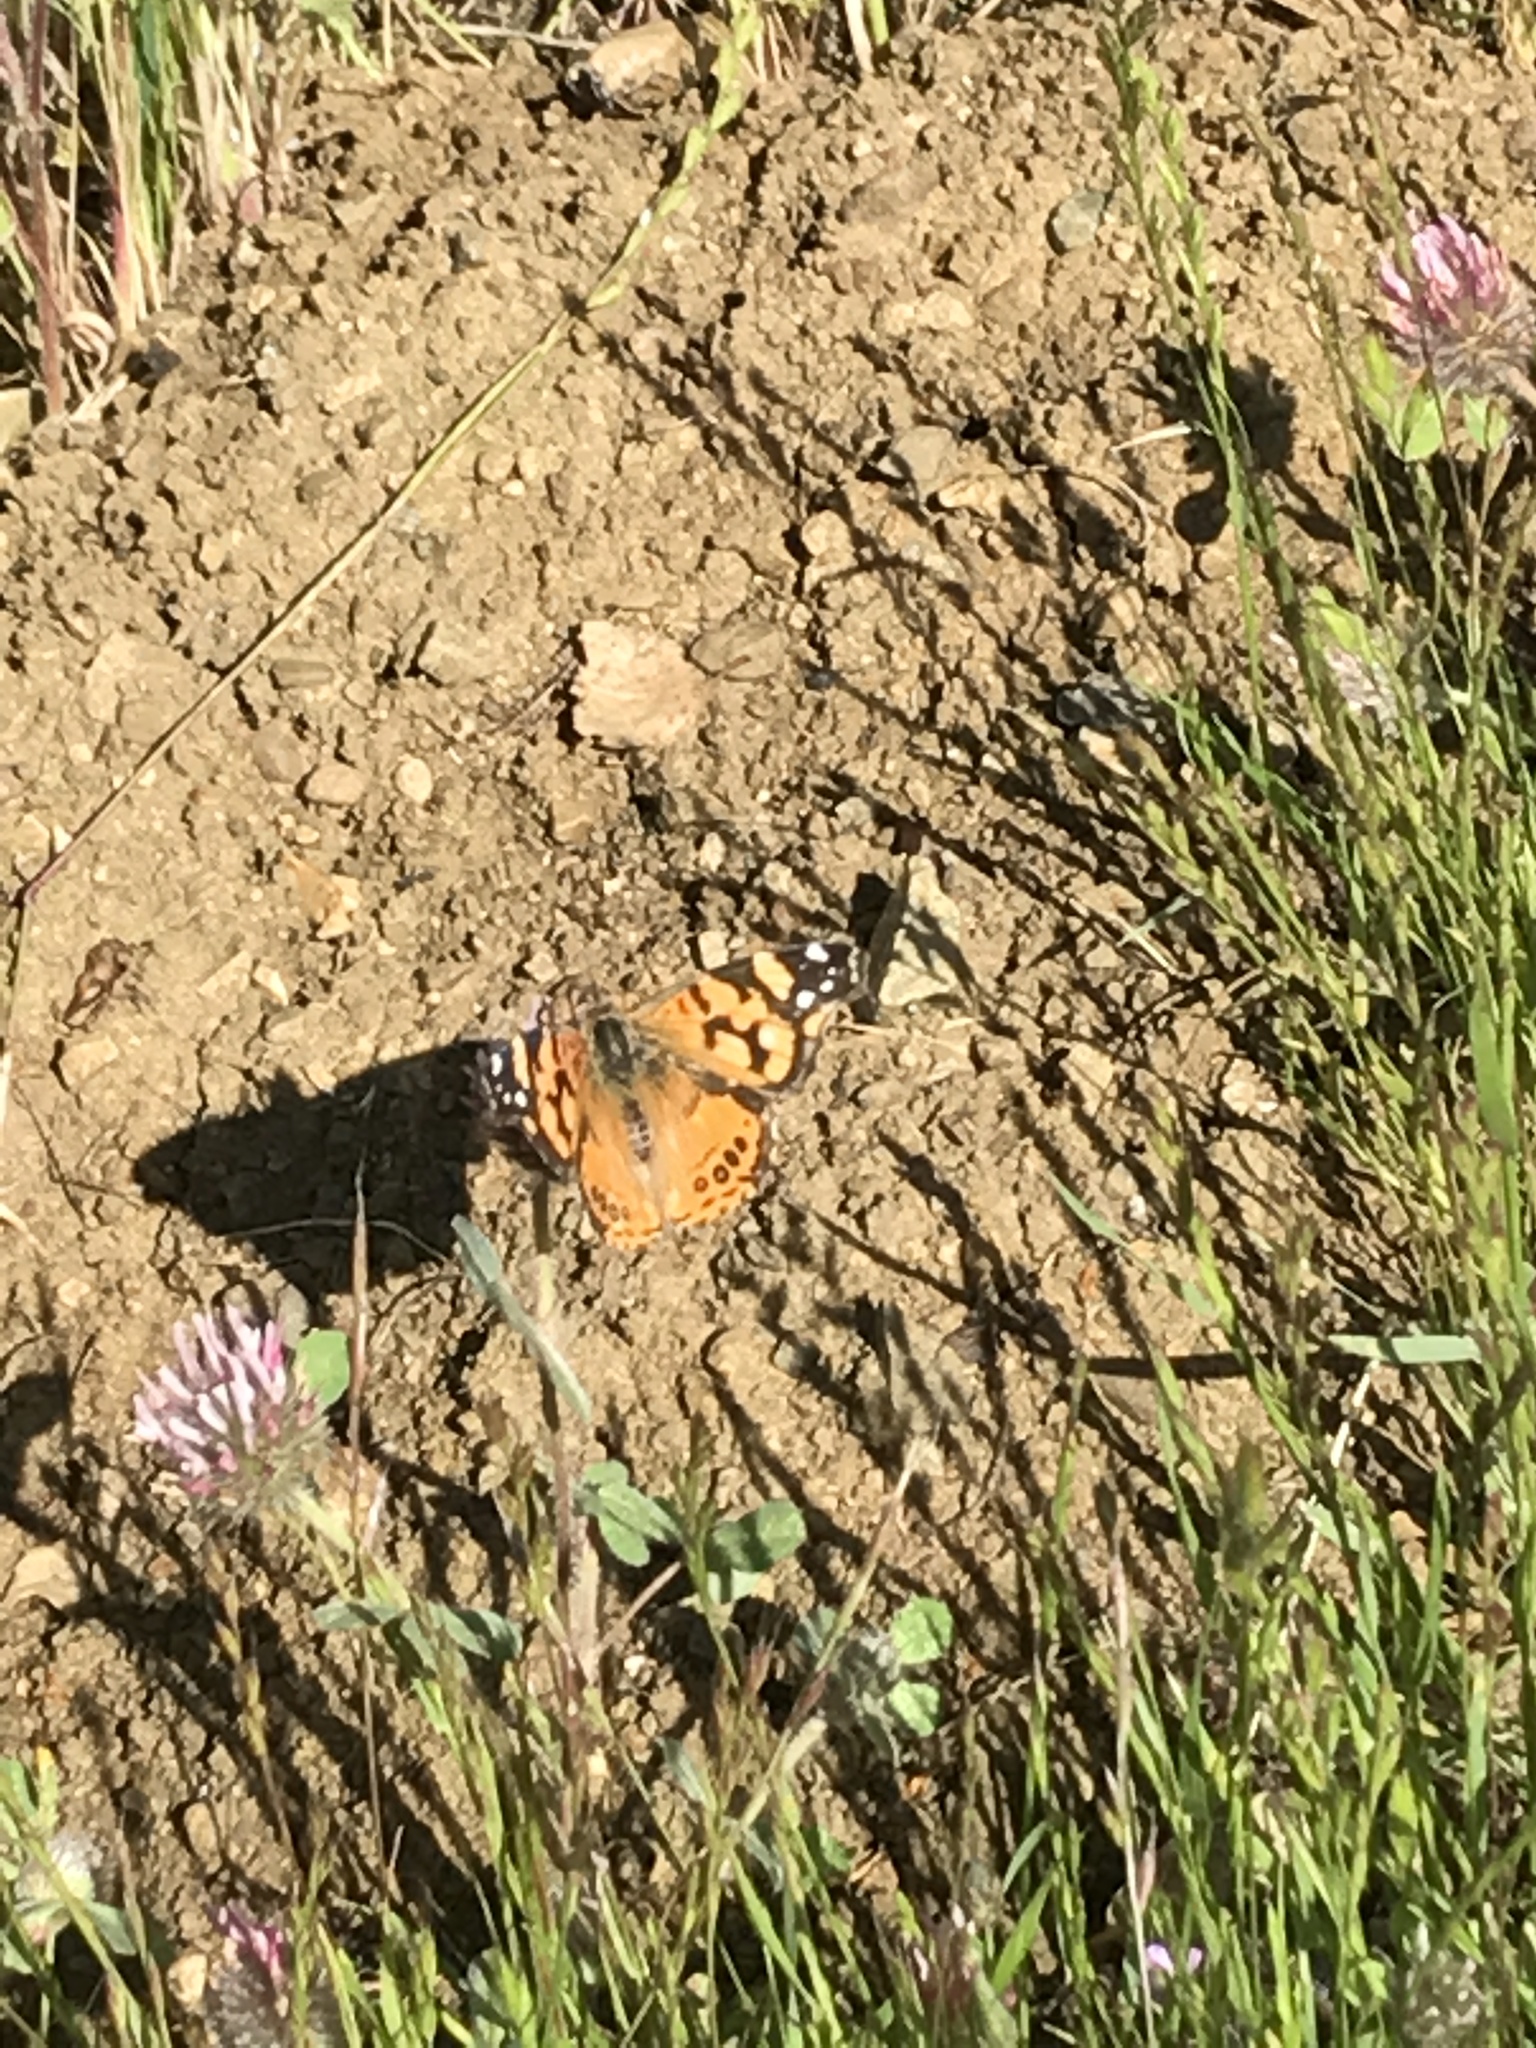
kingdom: Animalia
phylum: Arthropoda
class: Insecta
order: Lepidoptera
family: Nymphalidae
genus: Vanessa
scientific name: Vanessa annabella
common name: West coast lady
